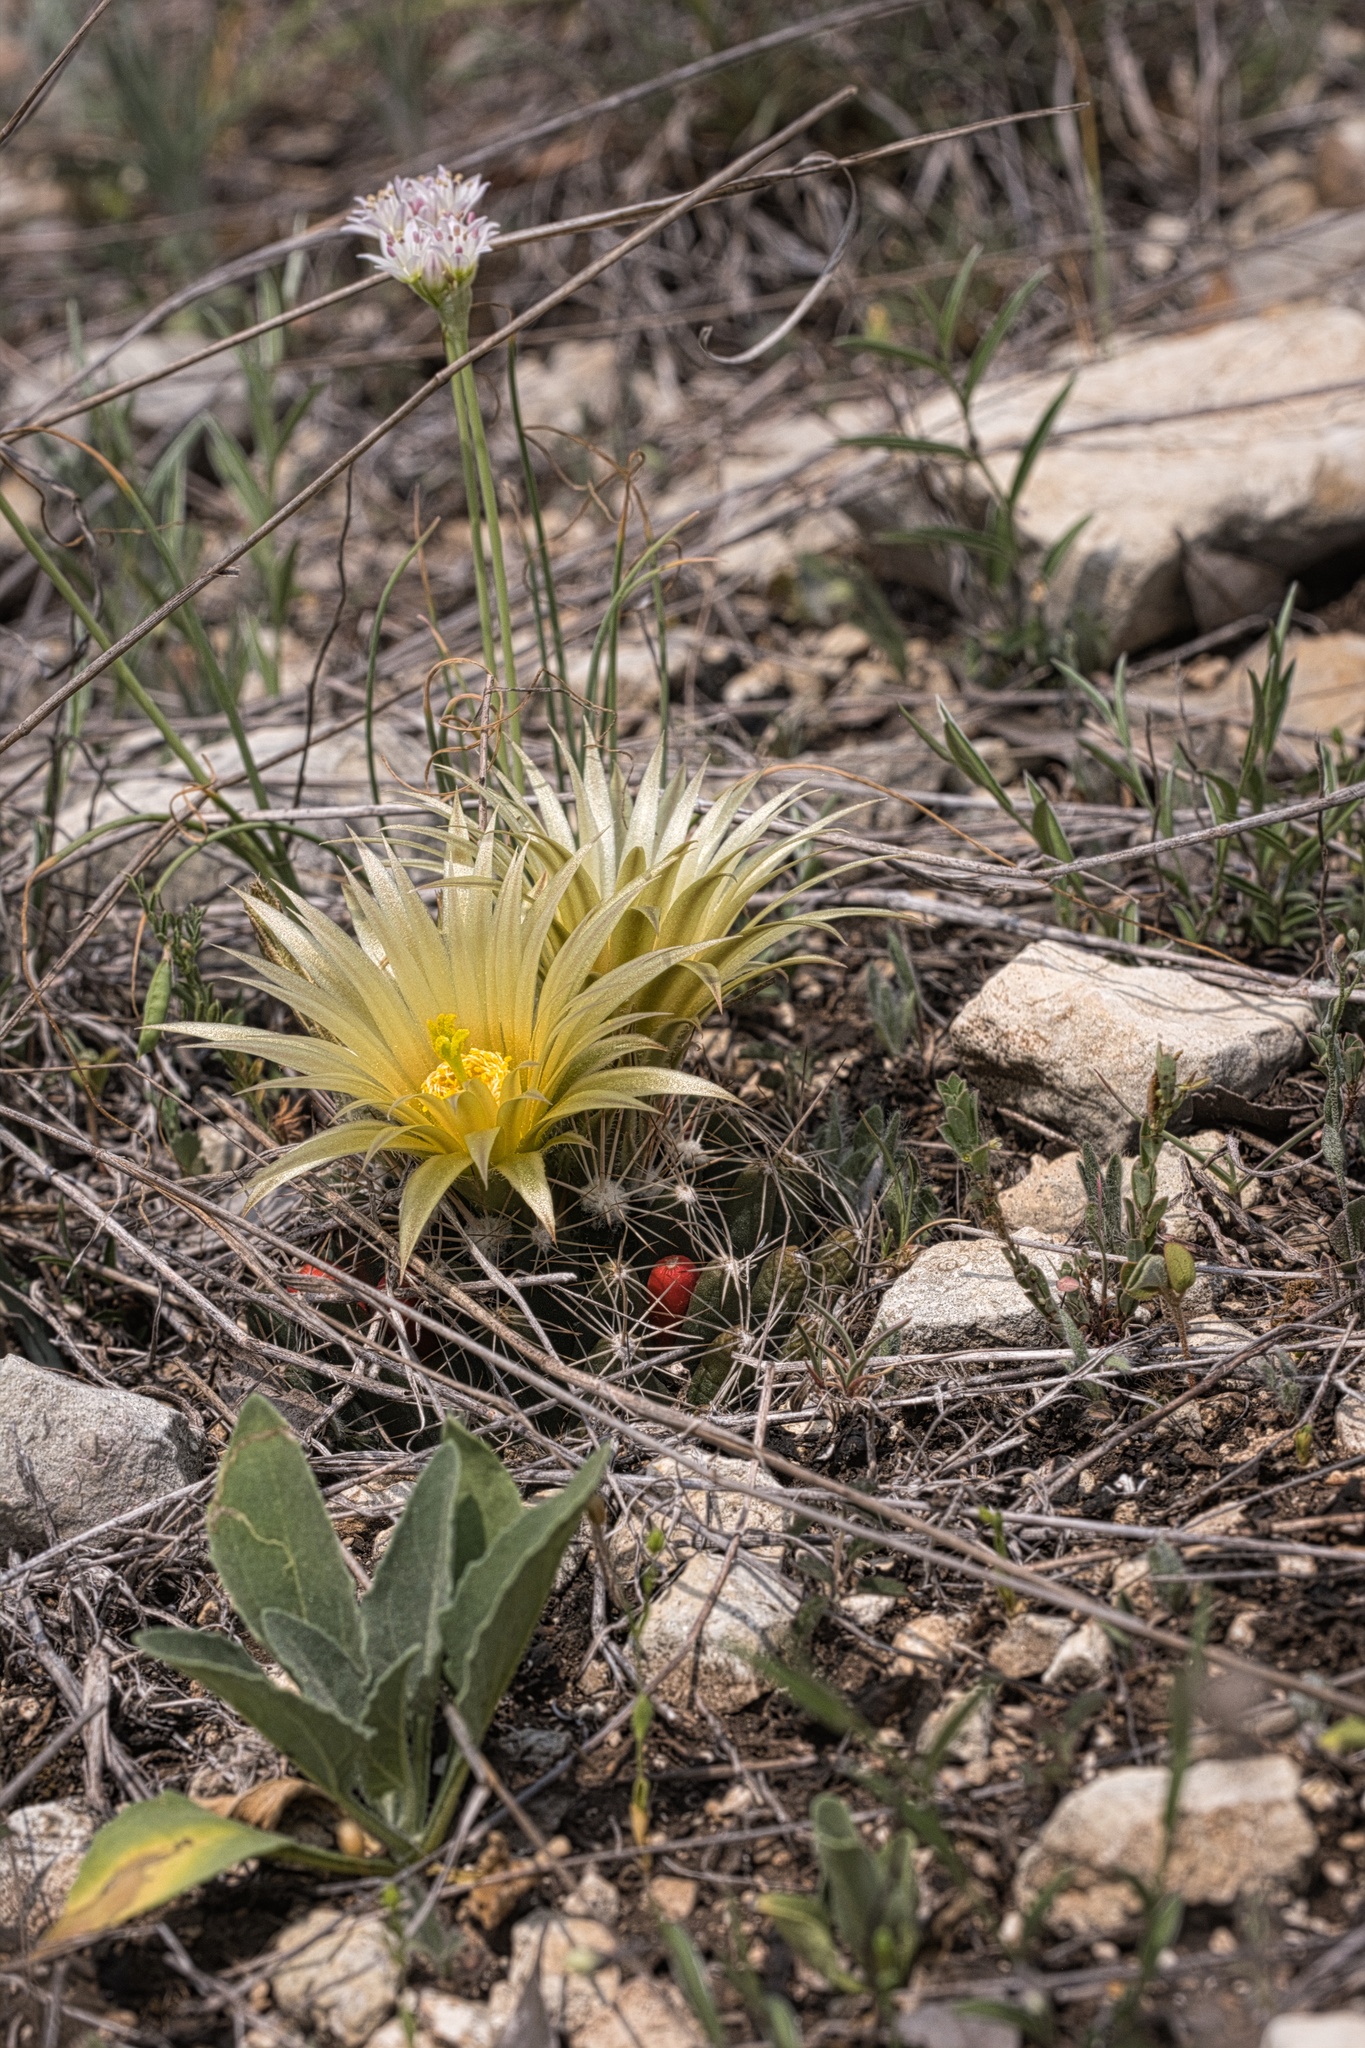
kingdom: Plantae
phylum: Tracheophyta
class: Magnoliopsida
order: Caryophyllales
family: Cactaceae
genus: Pelecyphora
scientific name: Pelecyphora missouriensis
